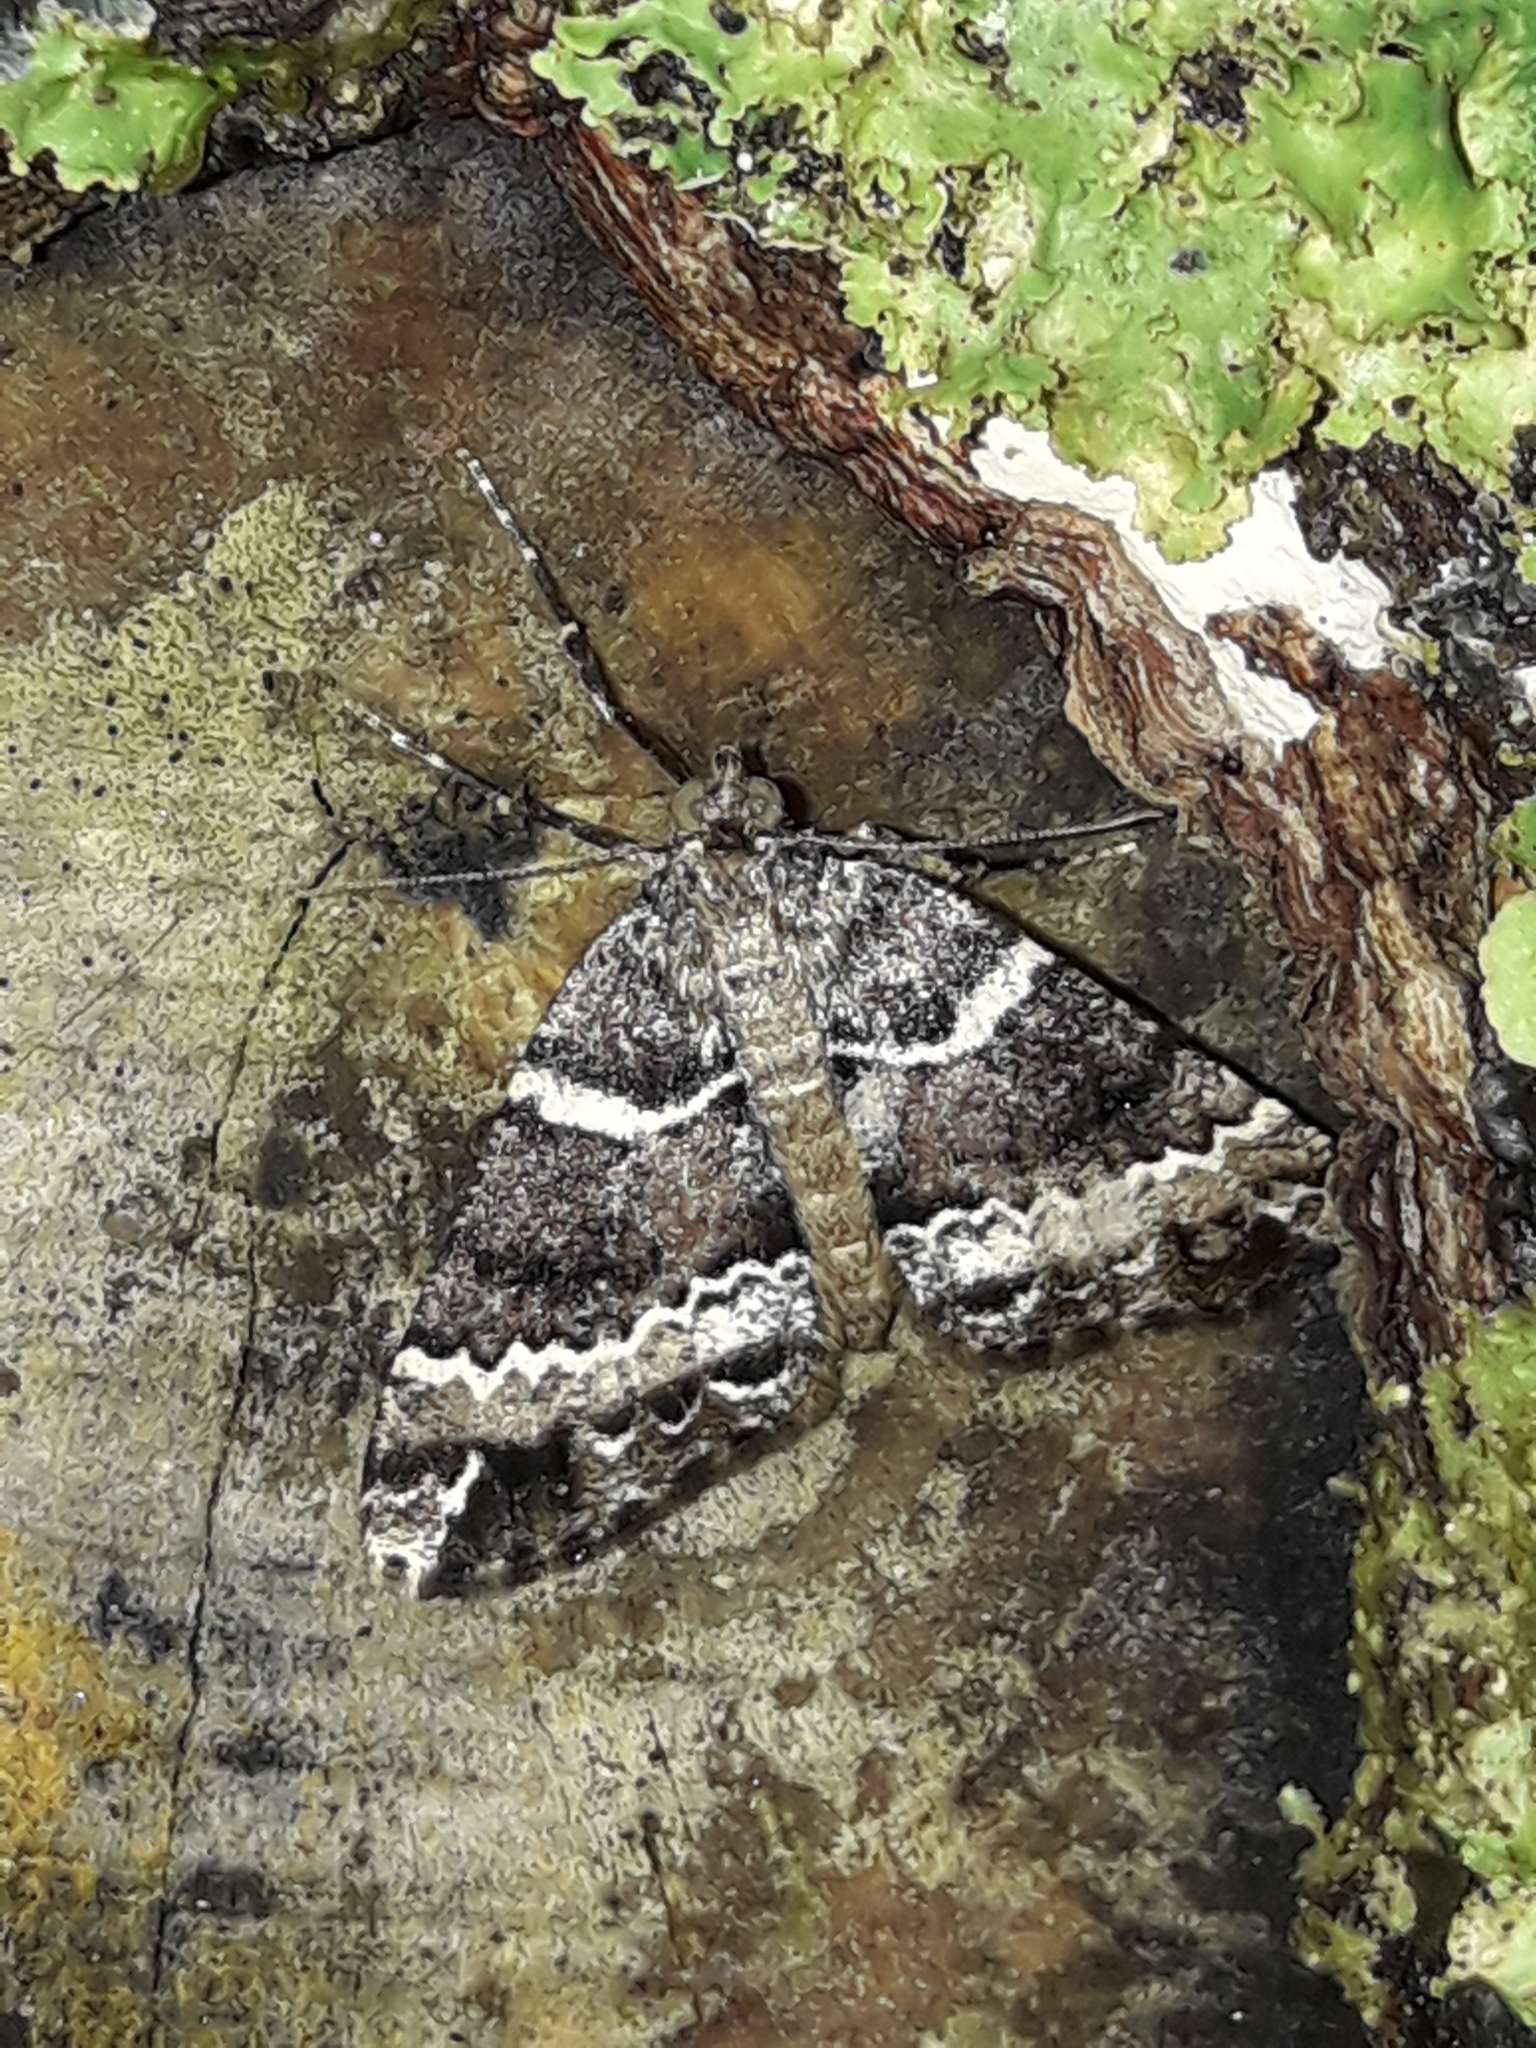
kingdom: Animalia
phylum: Arthropoda
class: Insecta
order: Lepidoptera
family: Geometridae
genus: Pseudocoremia
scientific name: Pseudocoremia
